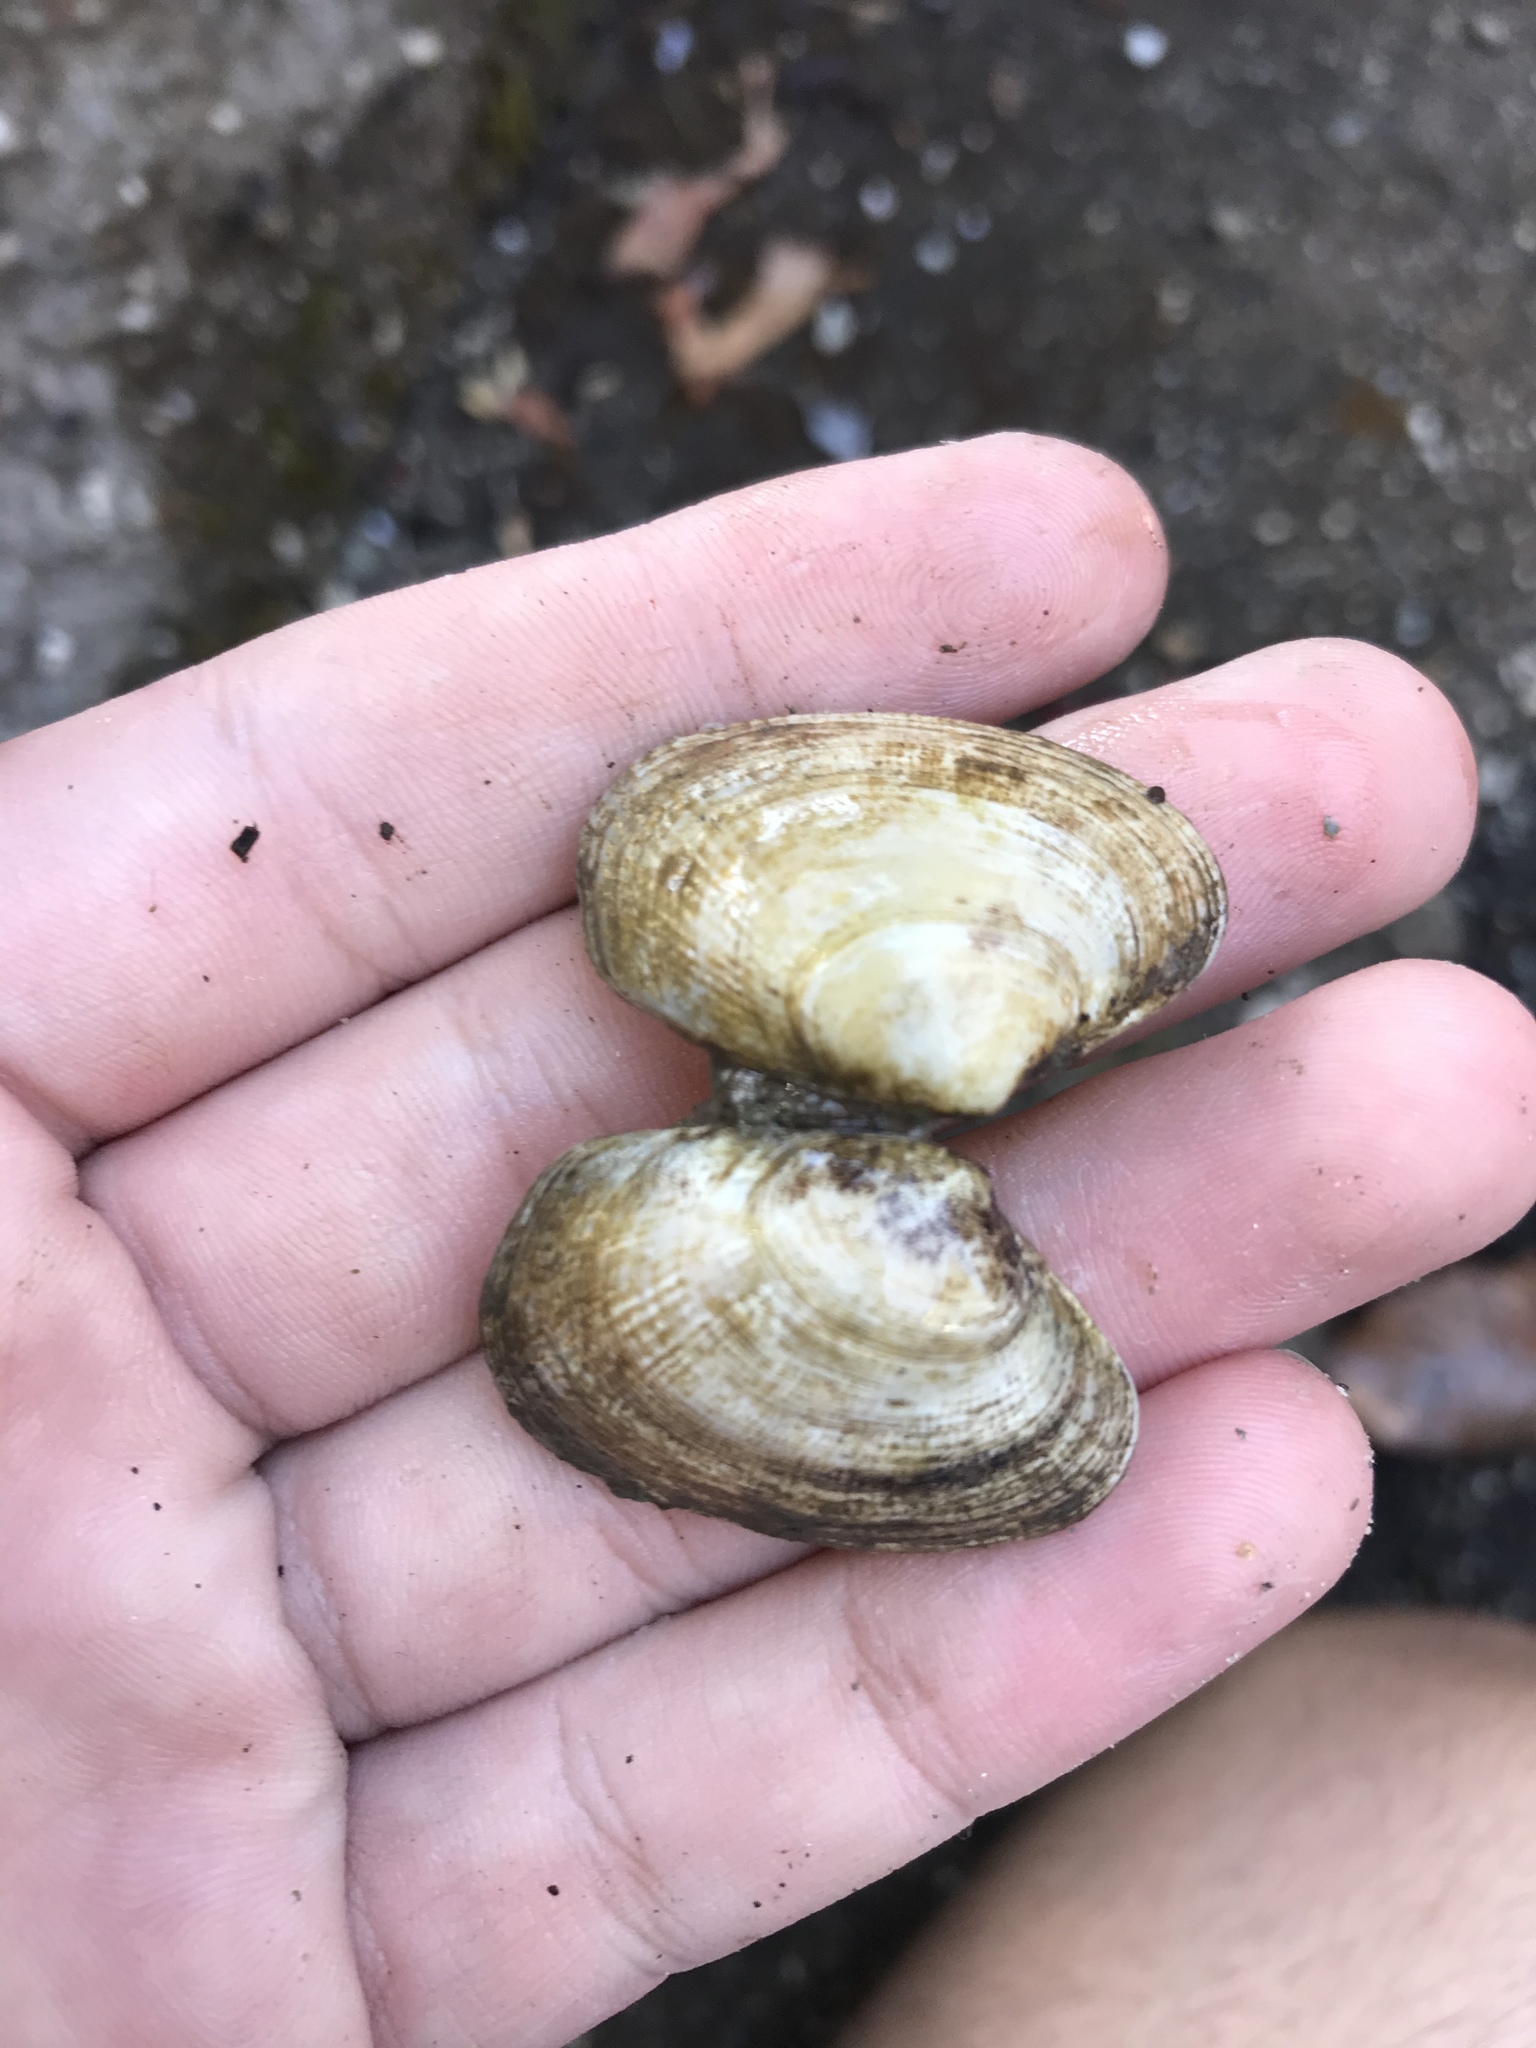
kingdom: Animalia
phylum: Mollusca
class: Bivalvia
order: Venerida
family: Veneridae
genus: Ruditapes
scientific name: Ruditapes philippinarum
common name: Manila clam
